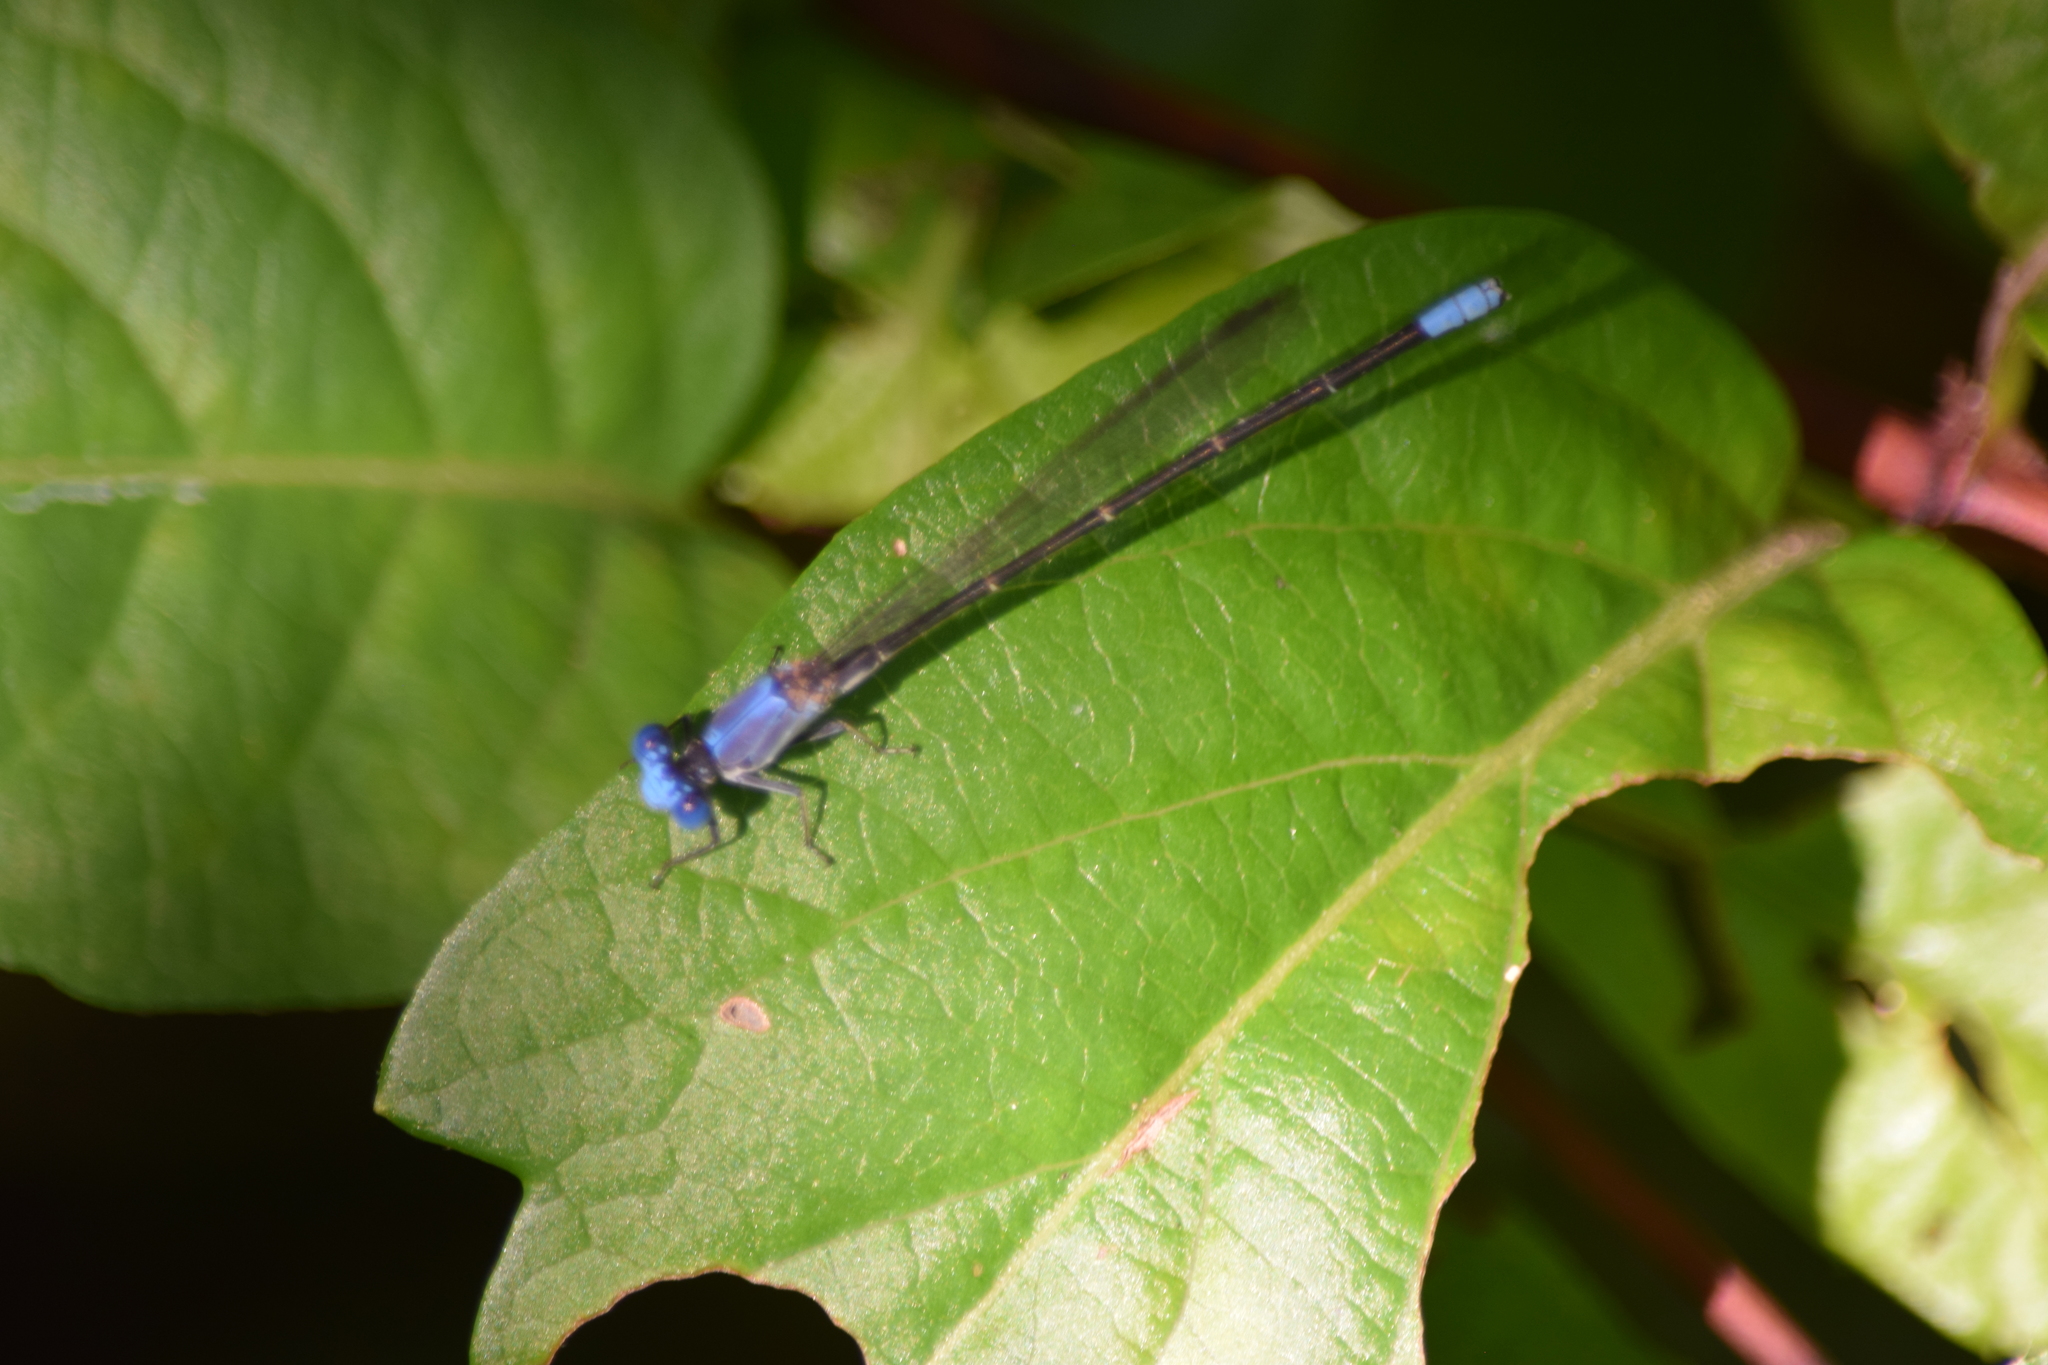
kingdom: Animalia
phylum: Arthropoda
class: Insecta
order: Odonata
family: Coenagrionidae
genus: Argia
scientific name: Argia apicalis
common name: Blue-fronted dancer
